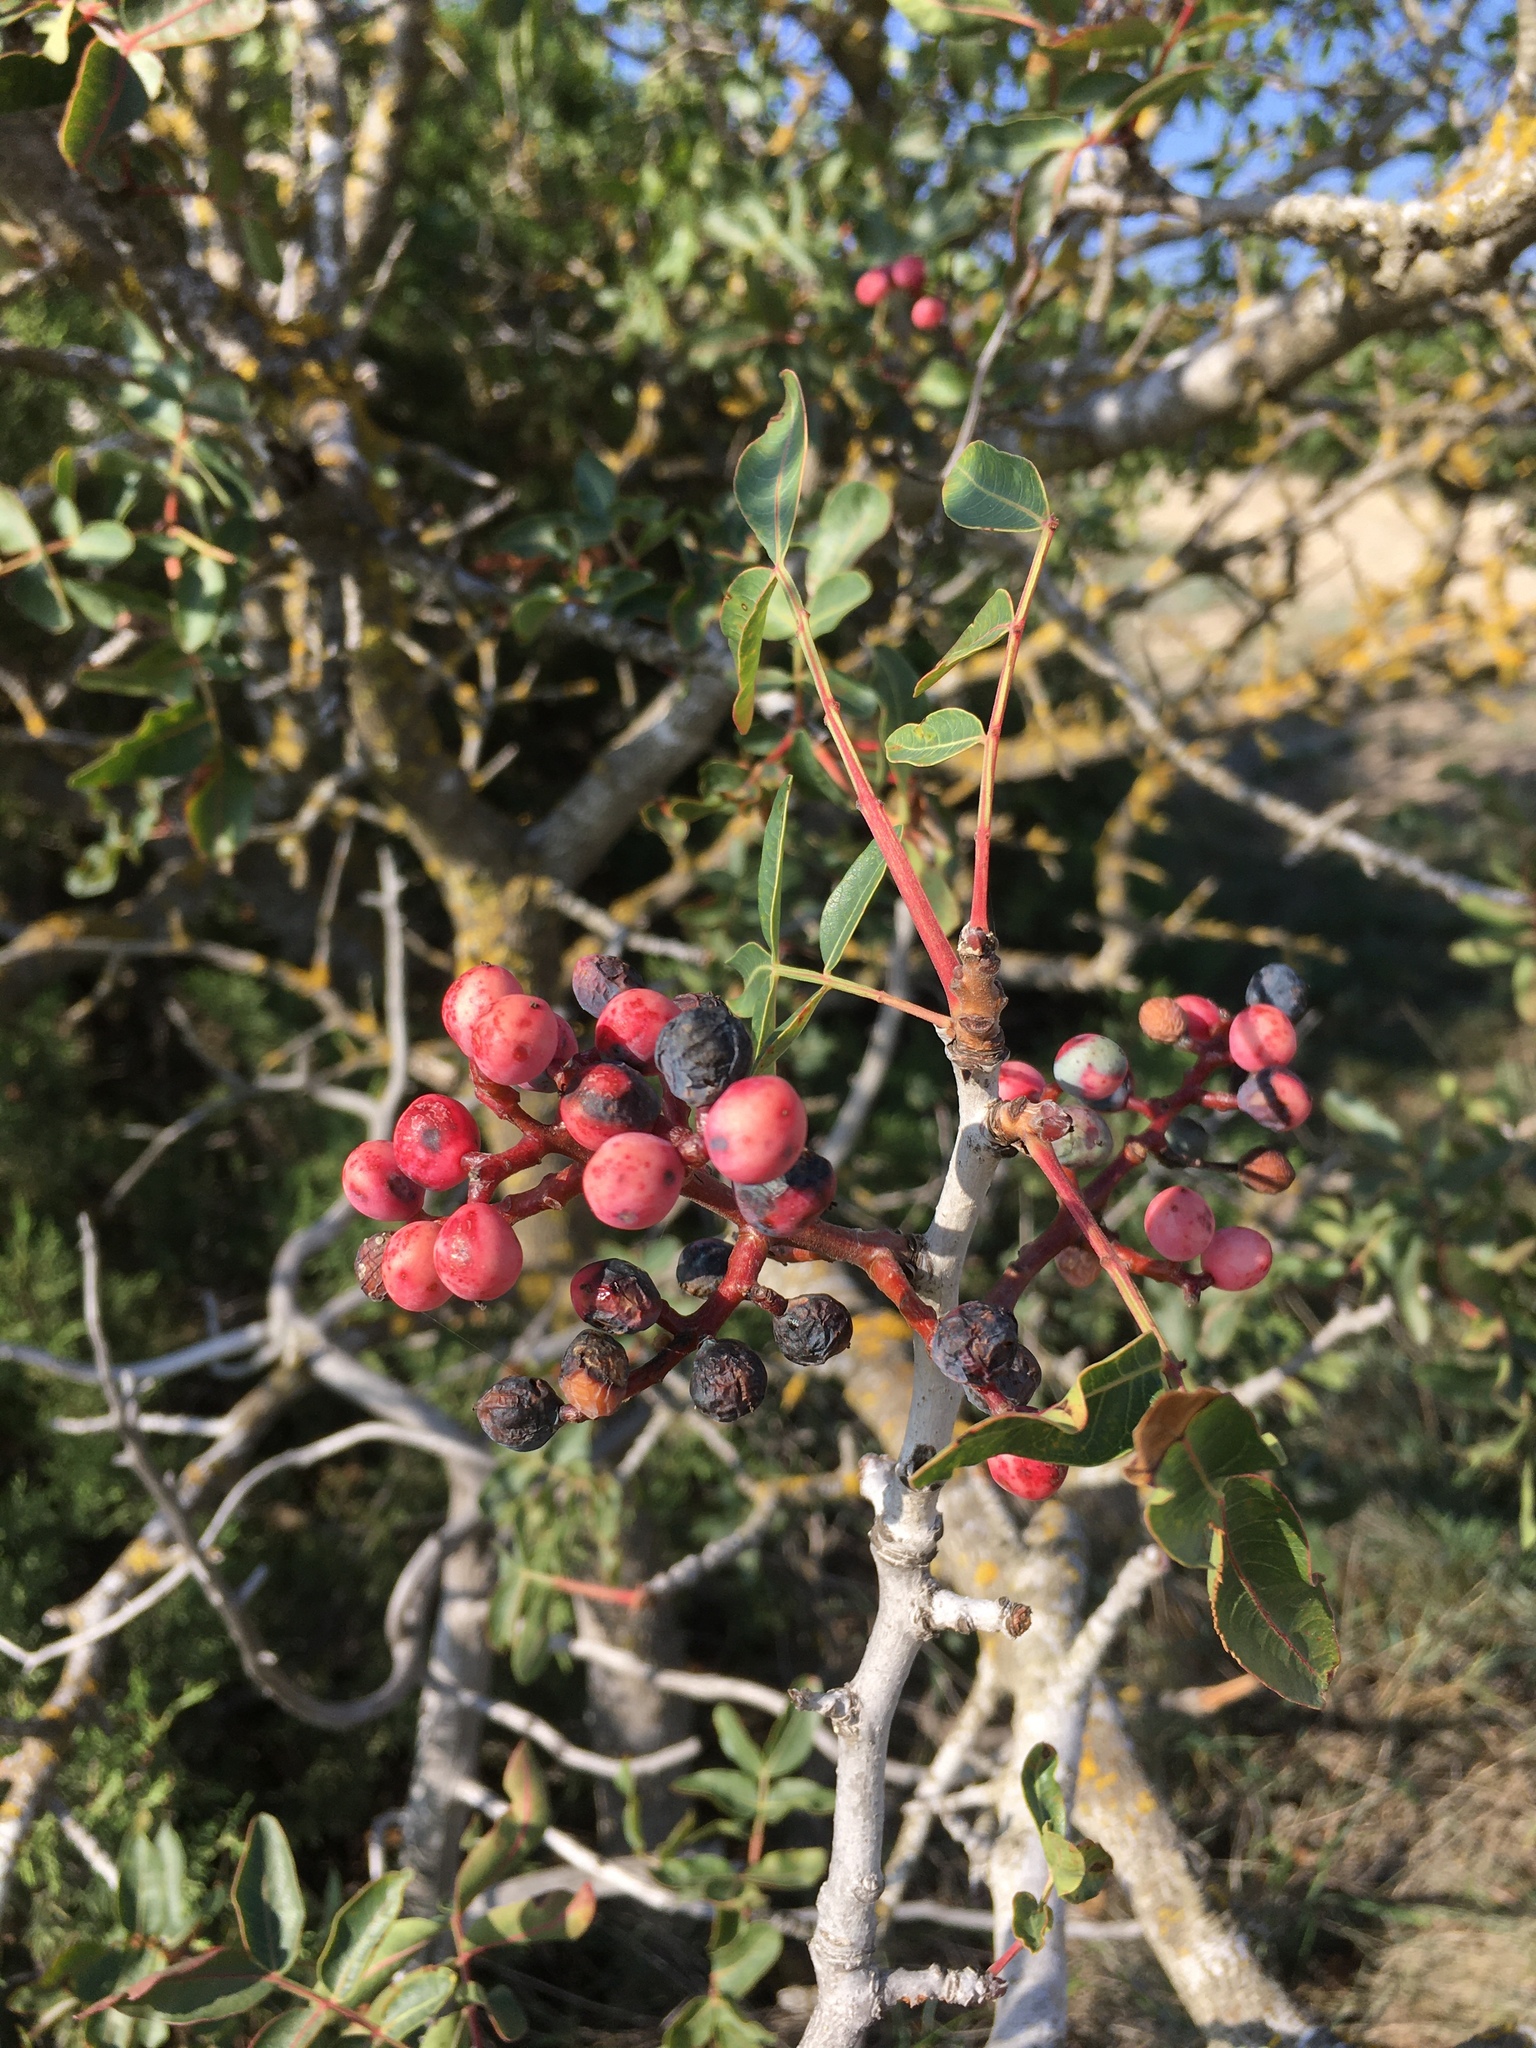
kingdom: Plantae
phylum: Tracheophyta
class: Magnoliopsida
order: Sapindales
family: Anacardiaceae
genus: Pistacia
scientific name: Pistacia atlantica
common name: Mt. atlas mastic tree
